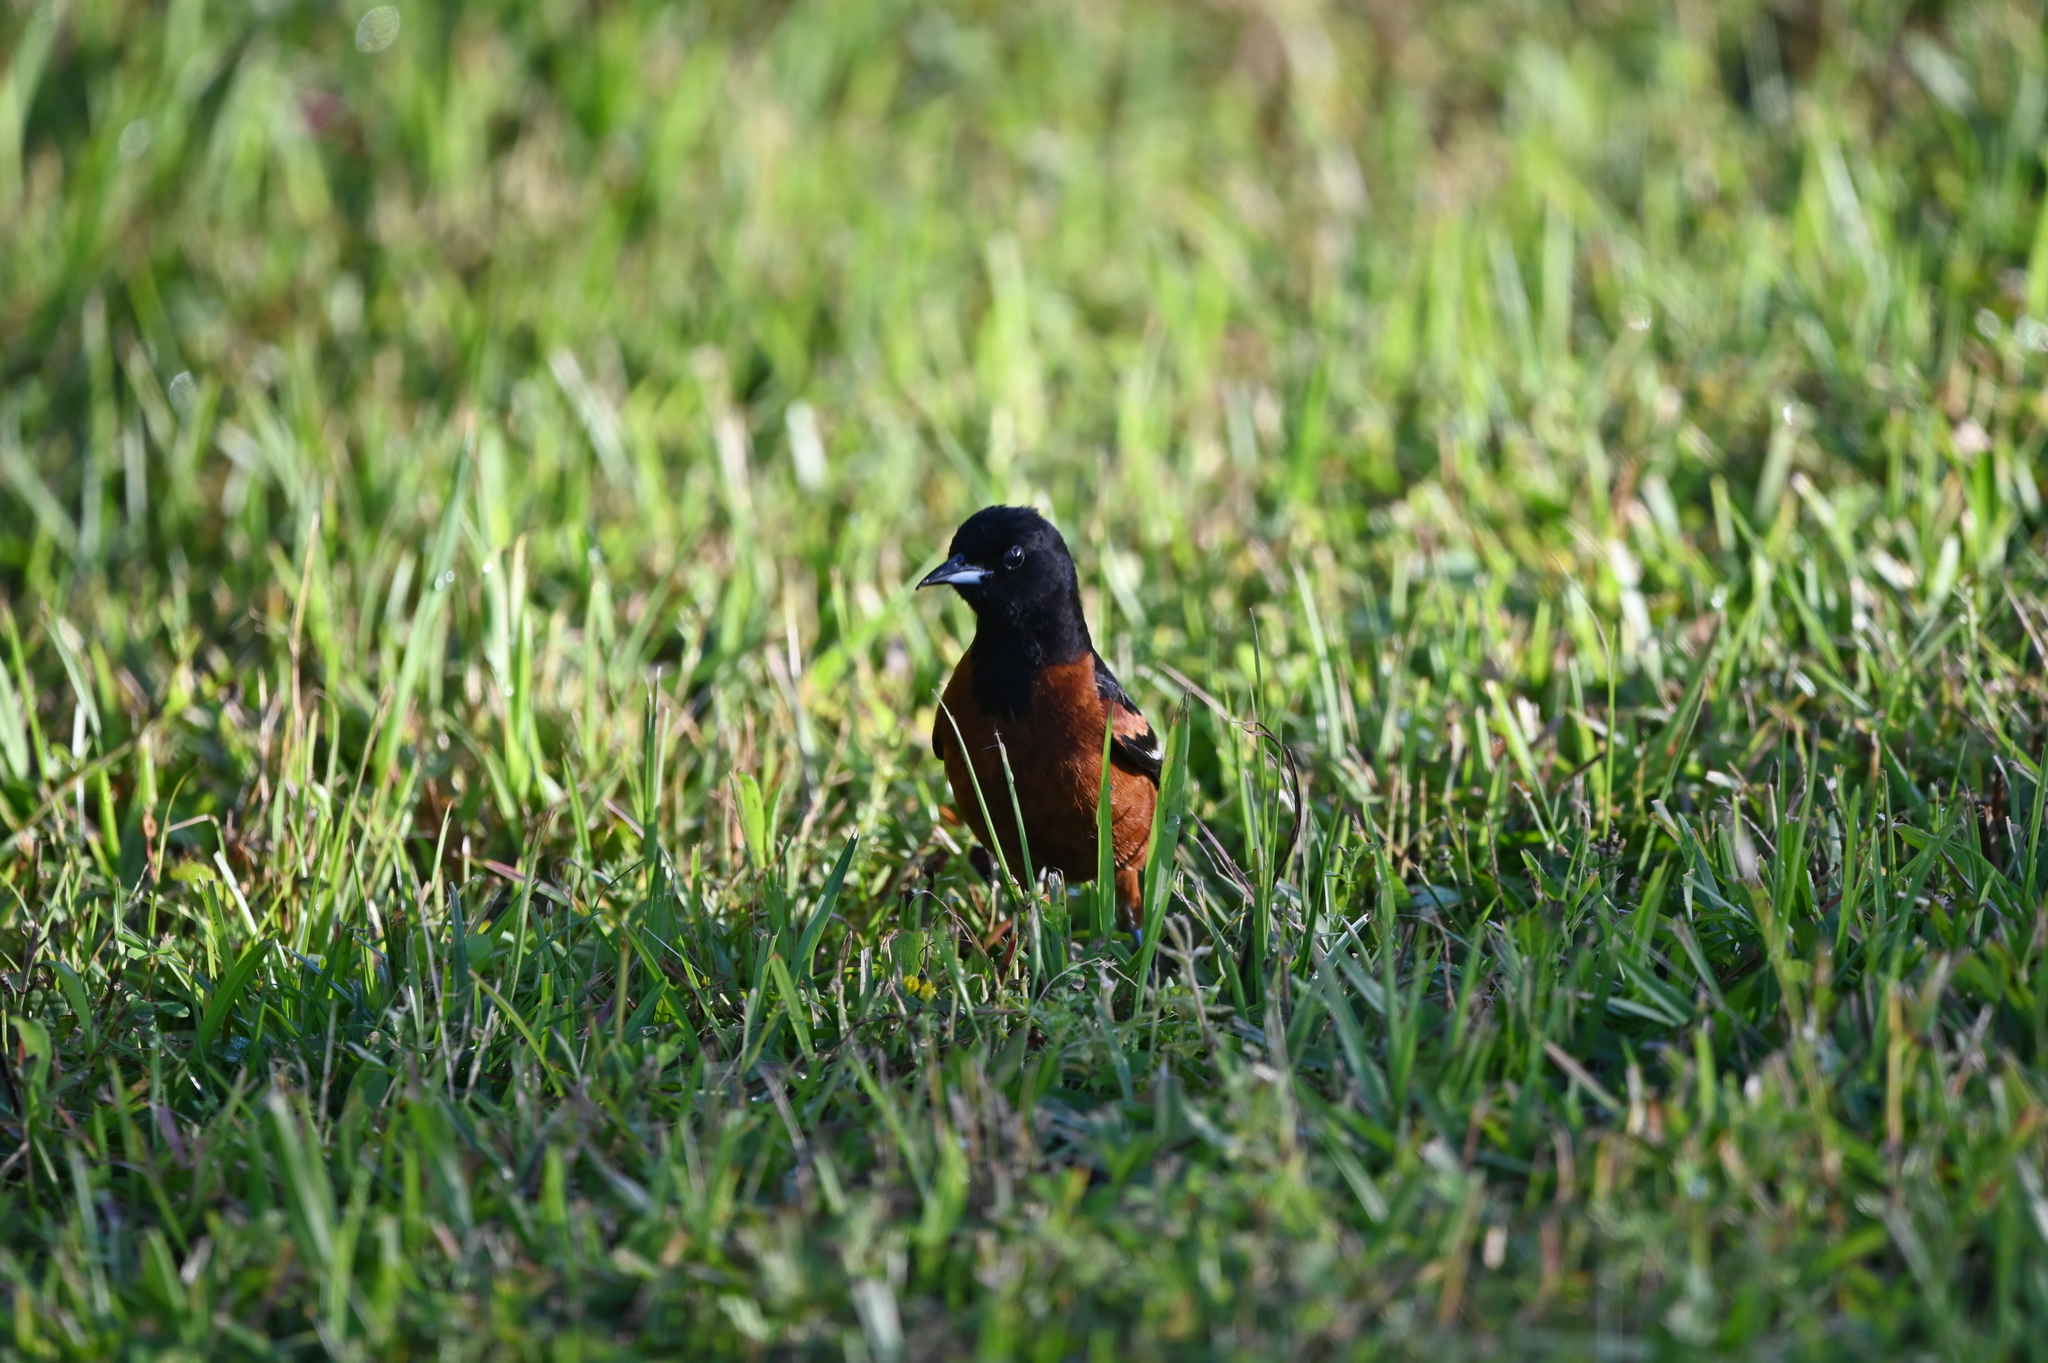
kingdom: Animalia
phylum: Chordata
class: Aves
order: Passeriformes
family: Icteridae
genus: Icterus
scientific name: Icterus spurius
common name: Orchard oriole
